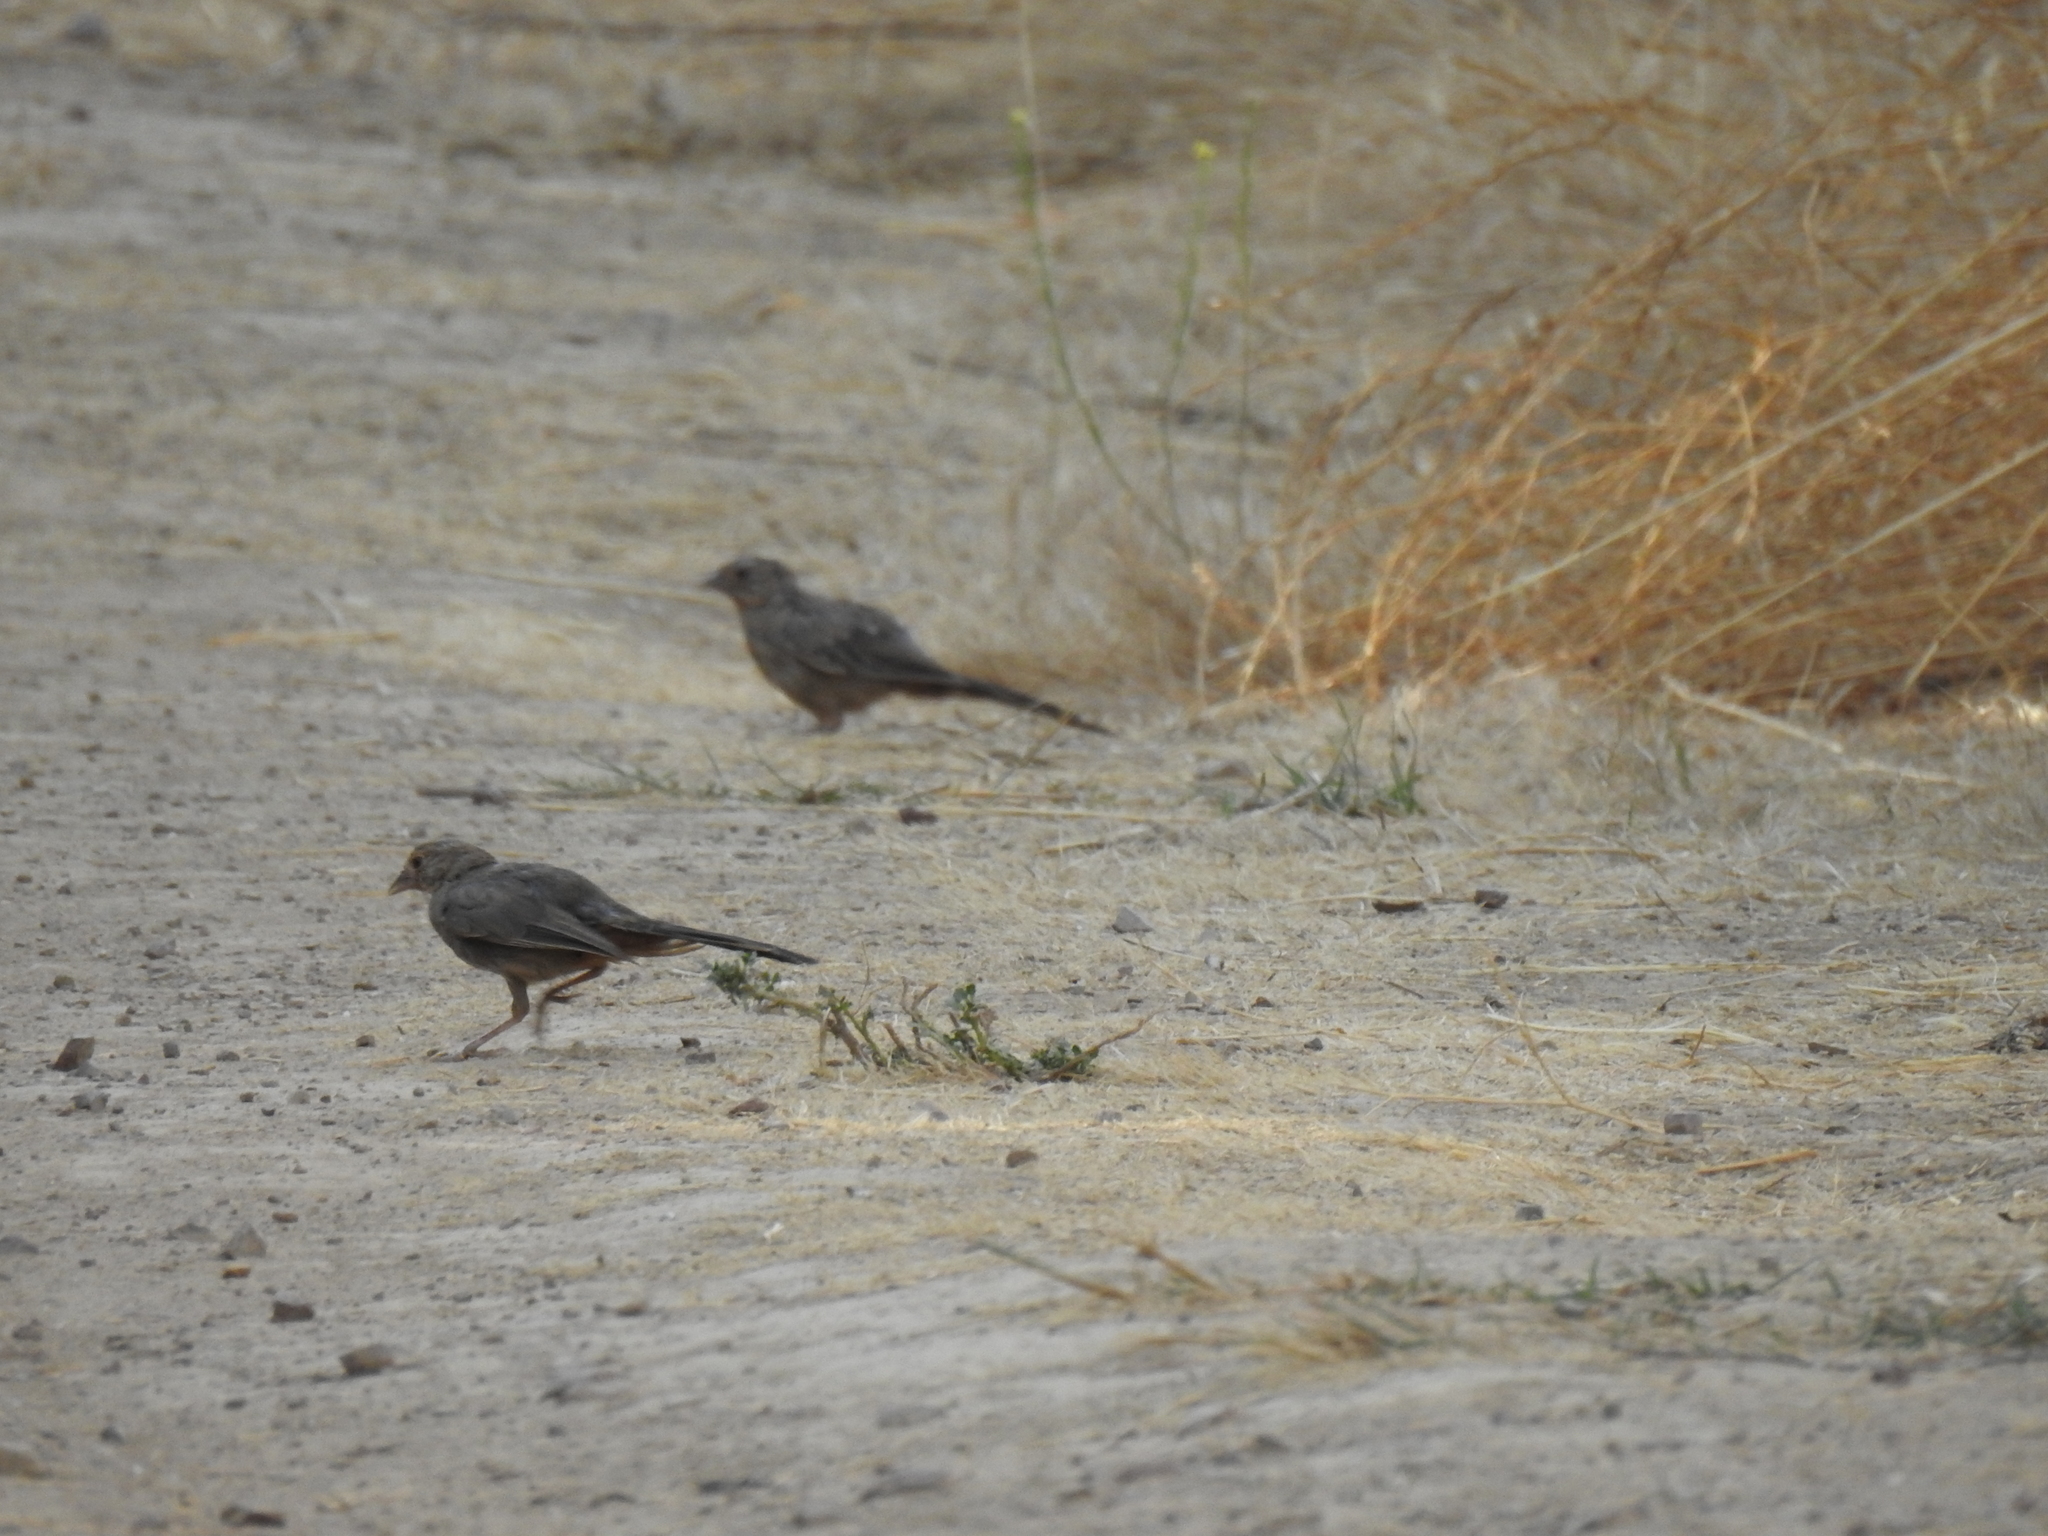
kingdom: Animalia
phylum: Chordata
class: Aves
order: Passeriformes
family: Passerellidae
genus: Melozone
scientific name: Melozone crissalis
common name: California towhee
